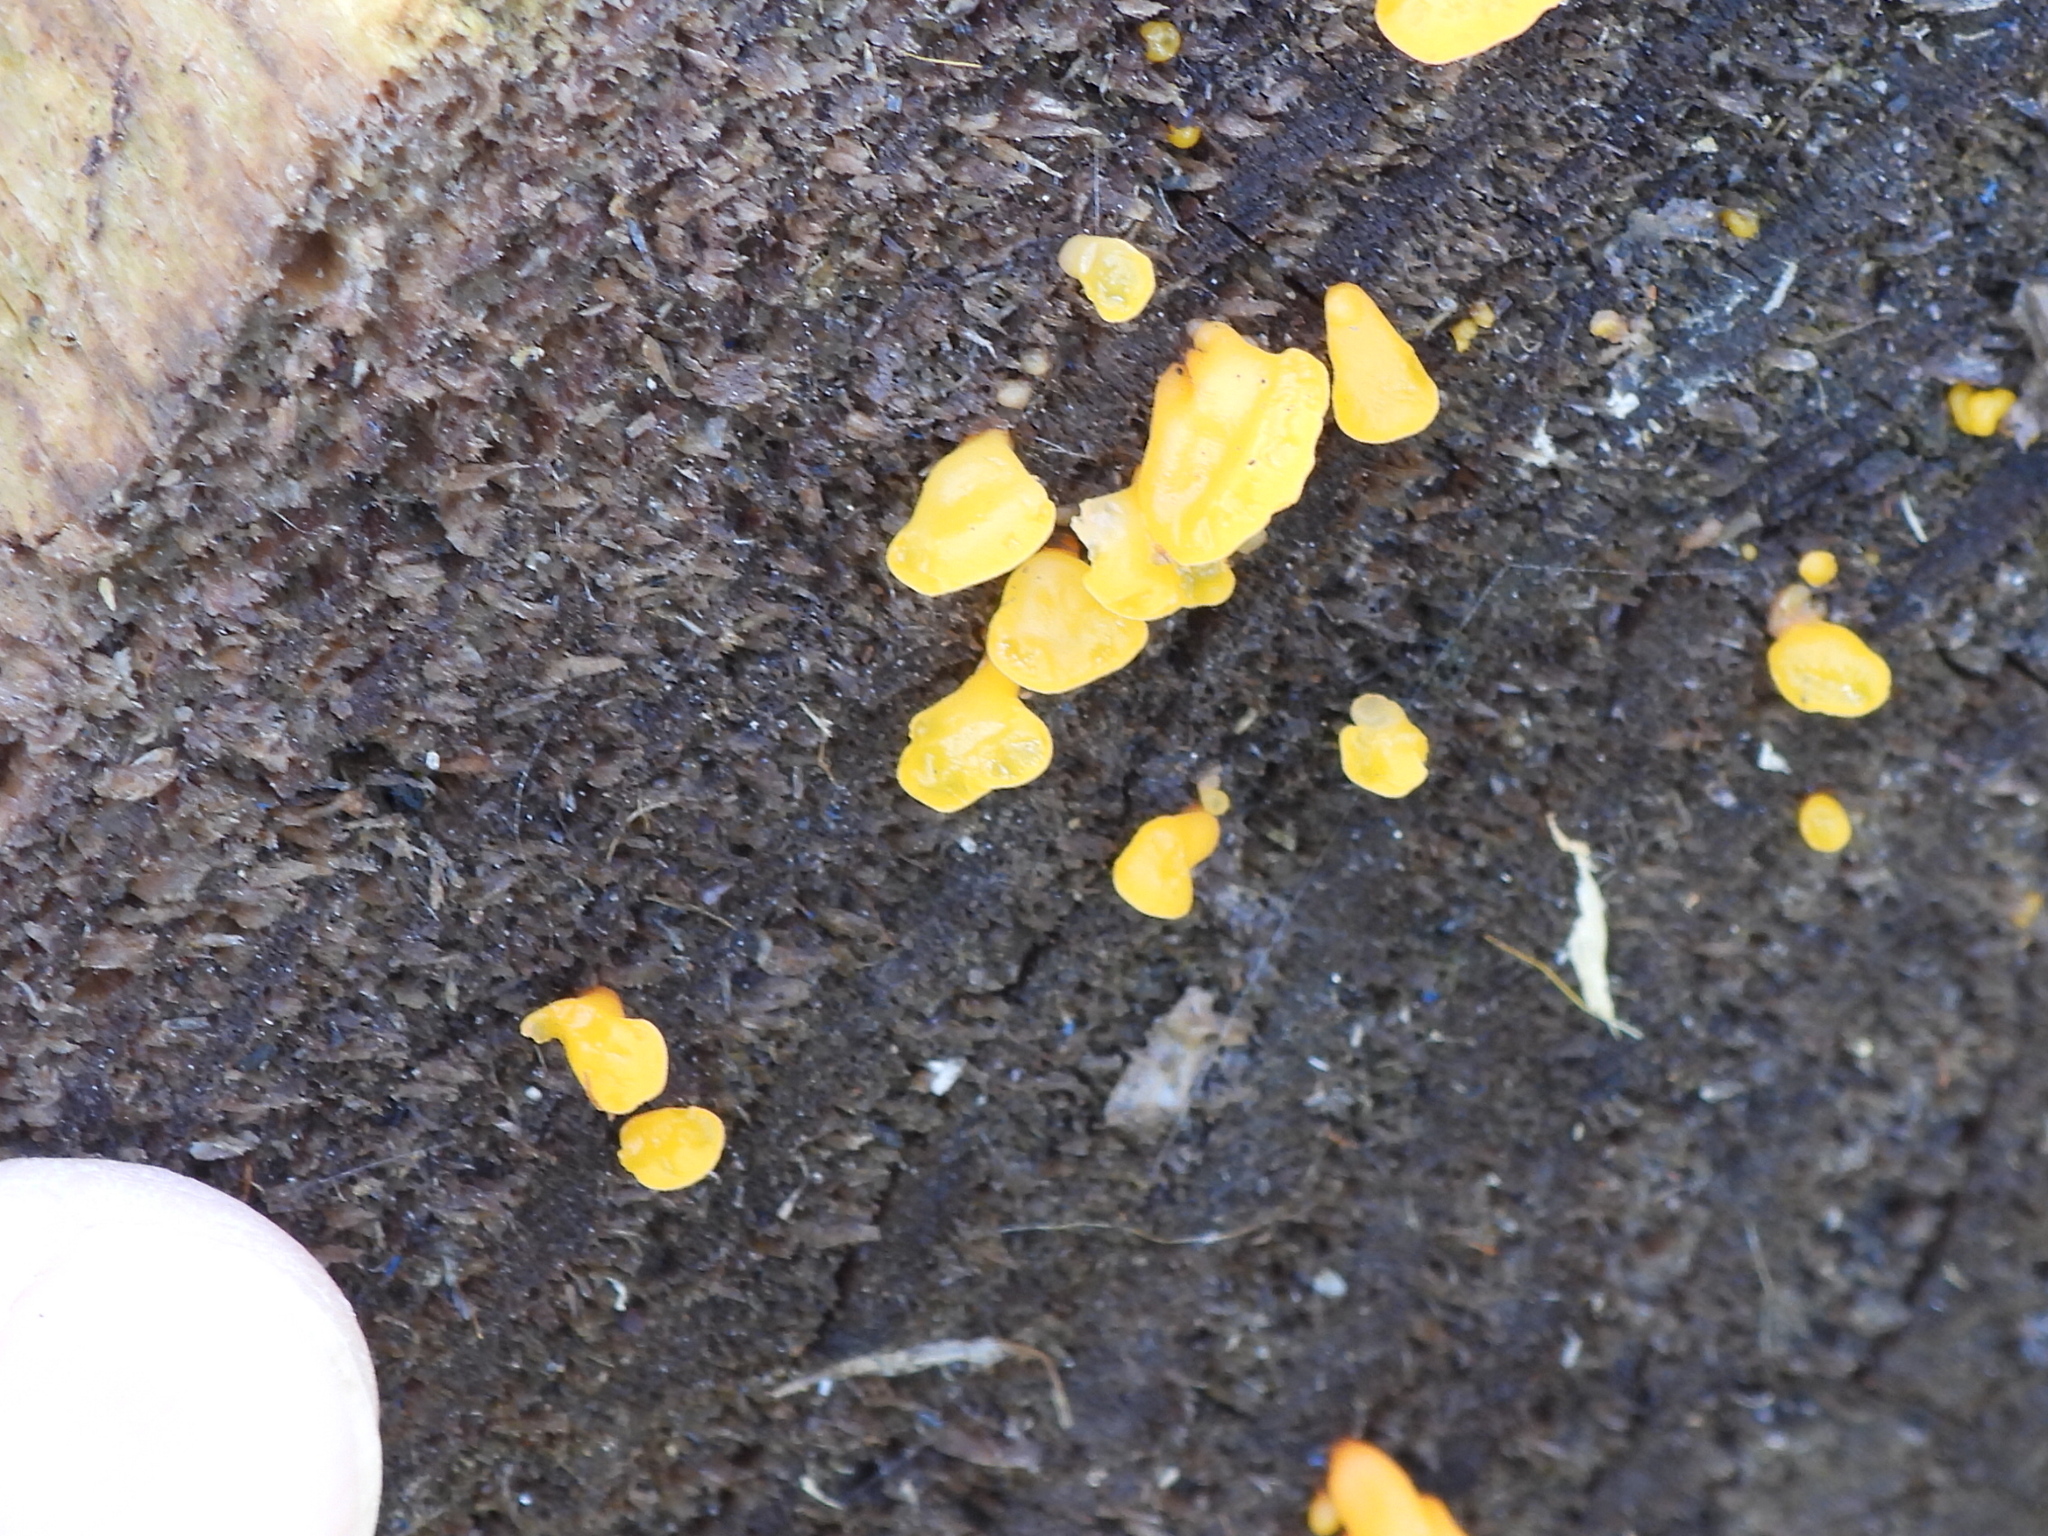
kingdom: Fungi
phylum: Basidiomycota
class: Dacrymycetes
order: Dacrymycetales
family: Dacrymycetaceae
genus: Dacrymyces
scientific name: Dacrymyces spathularius
